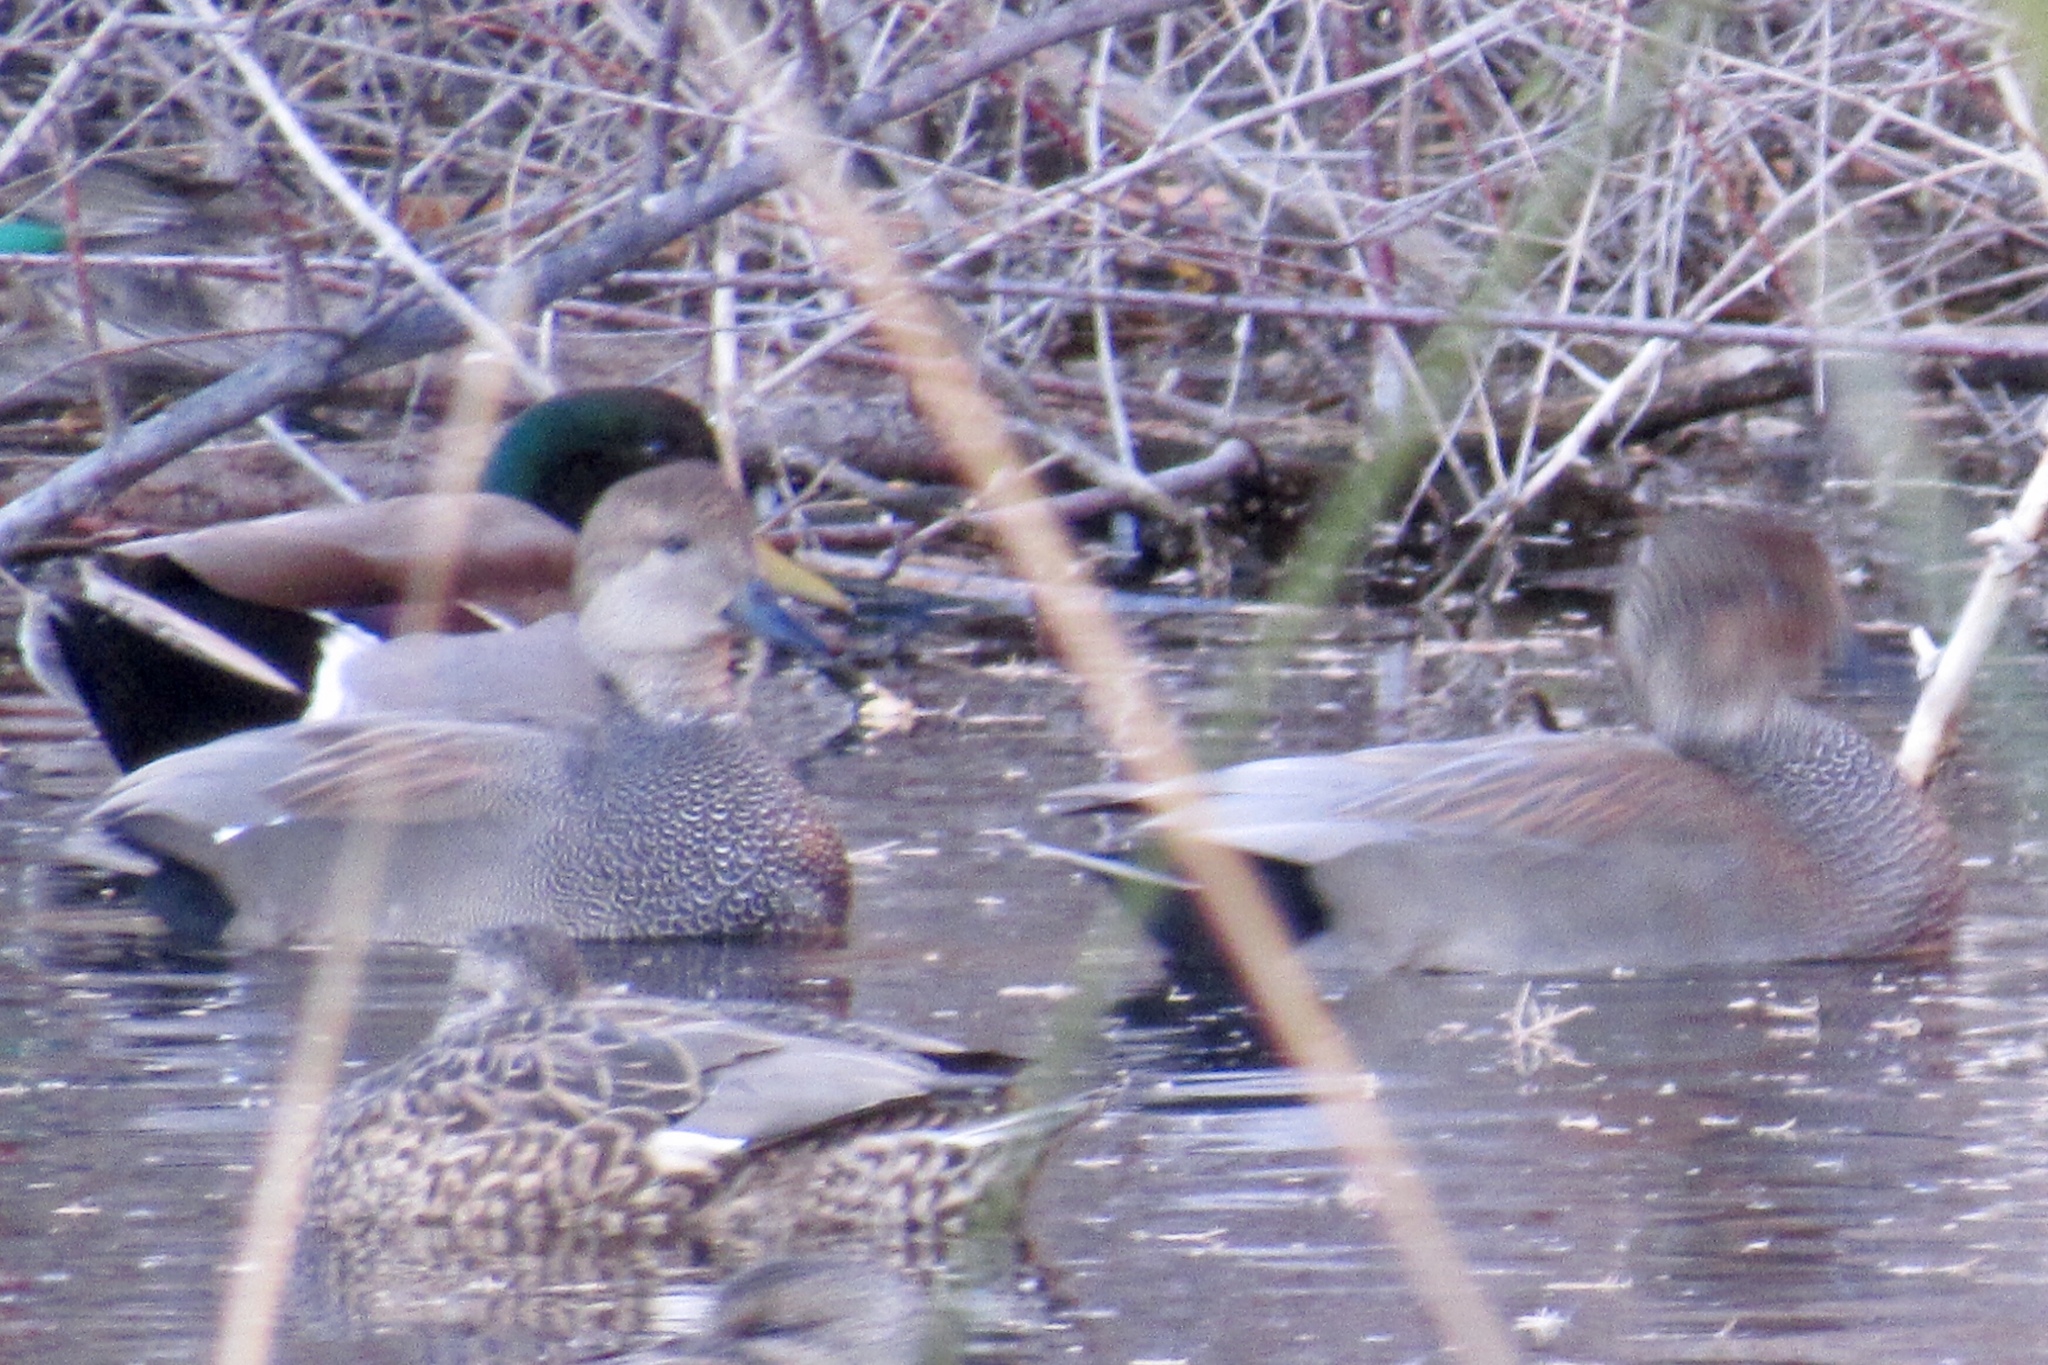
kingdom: Animalia
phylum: Chordata
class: Aves
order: Anseriformes
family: Anatidae
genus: Mareca
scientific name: Mareca strepera
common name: Gadwall
